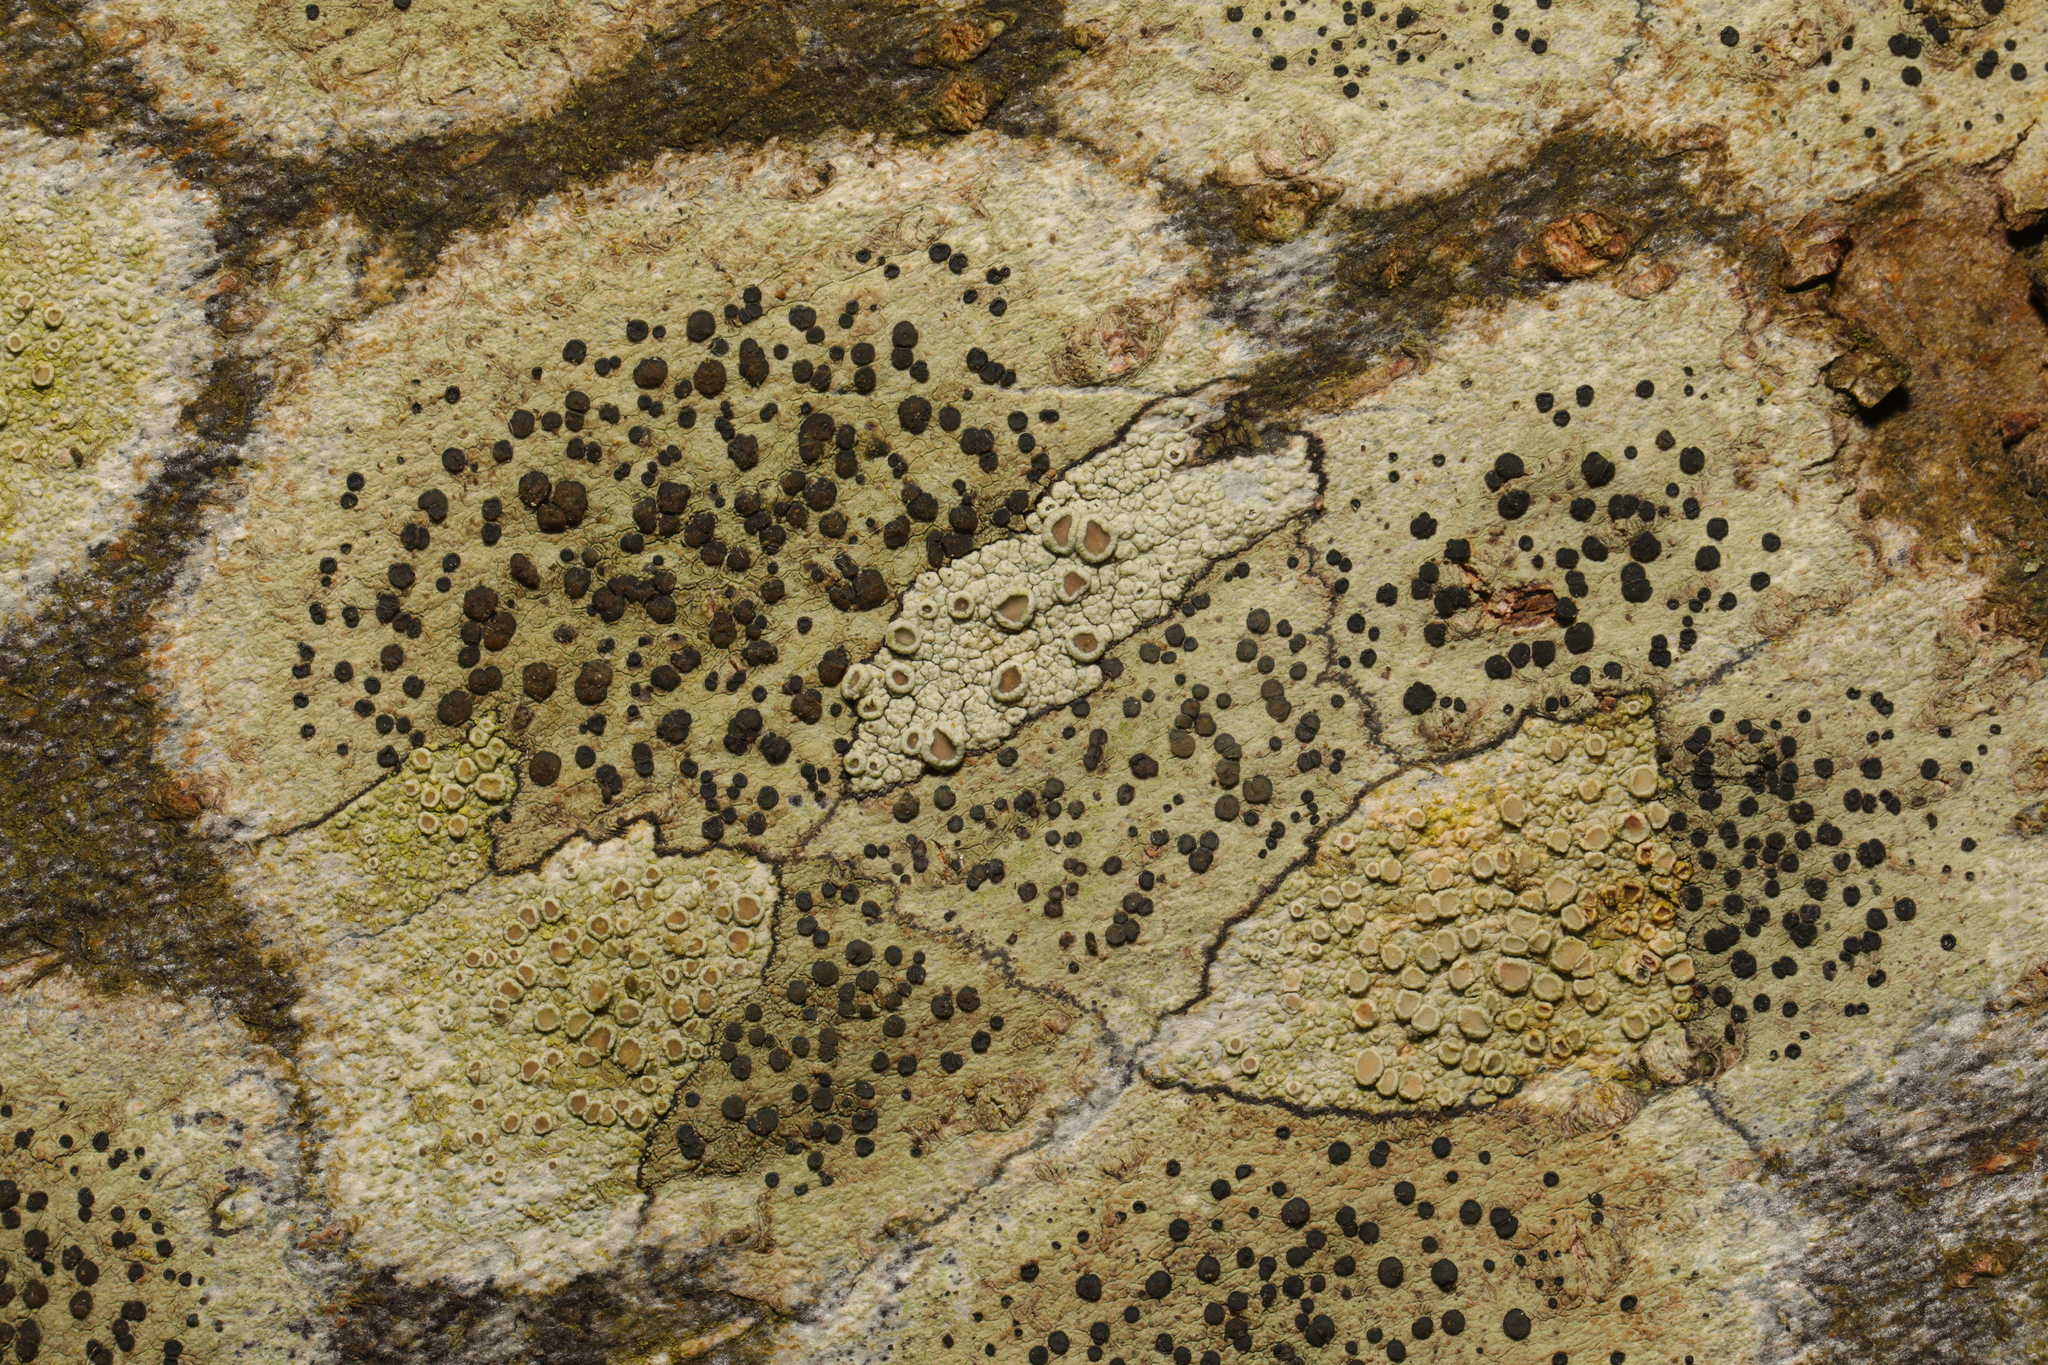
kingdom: Fungi
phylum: Ascomycota
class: Lecanoromycetes
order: Lecanorales
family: Lecanoraceae
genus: Lecidella
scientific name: Lecidella elaeochroma
